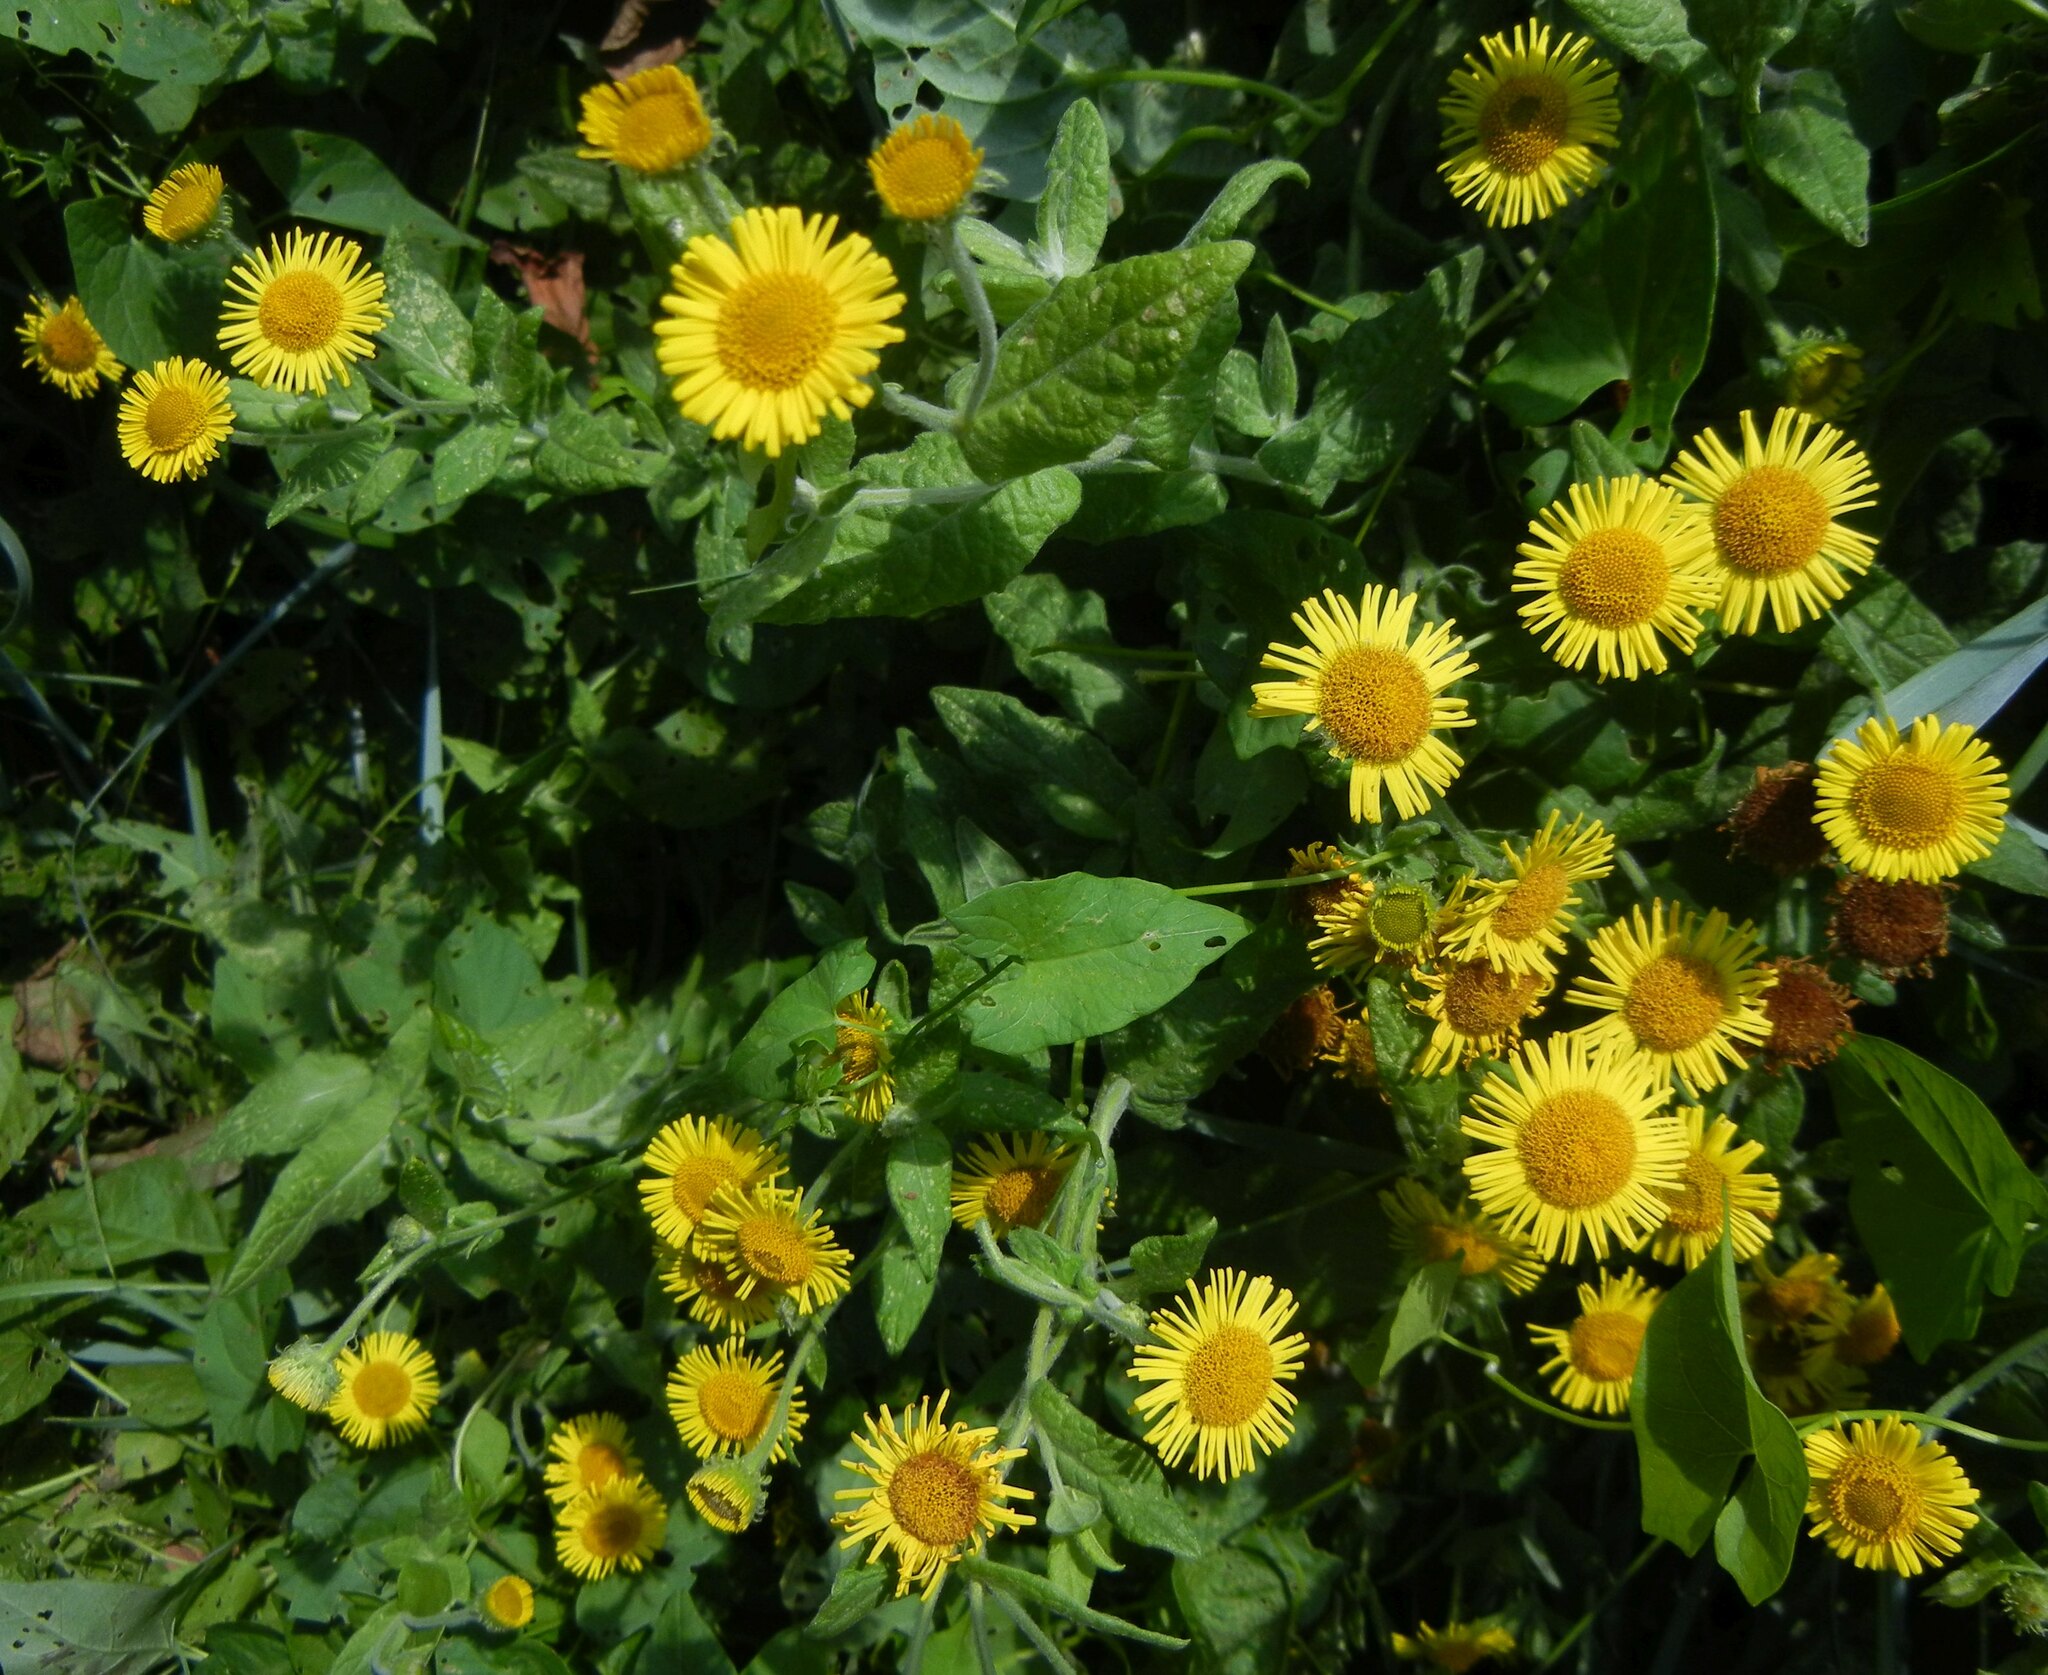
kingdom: Plantae
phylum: Tracheophyta
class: Magnoliopsida
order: Asterales
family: Asteraceae
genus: Pulicaria
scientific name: Pulicaria dysenterica
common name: Common fleabane
